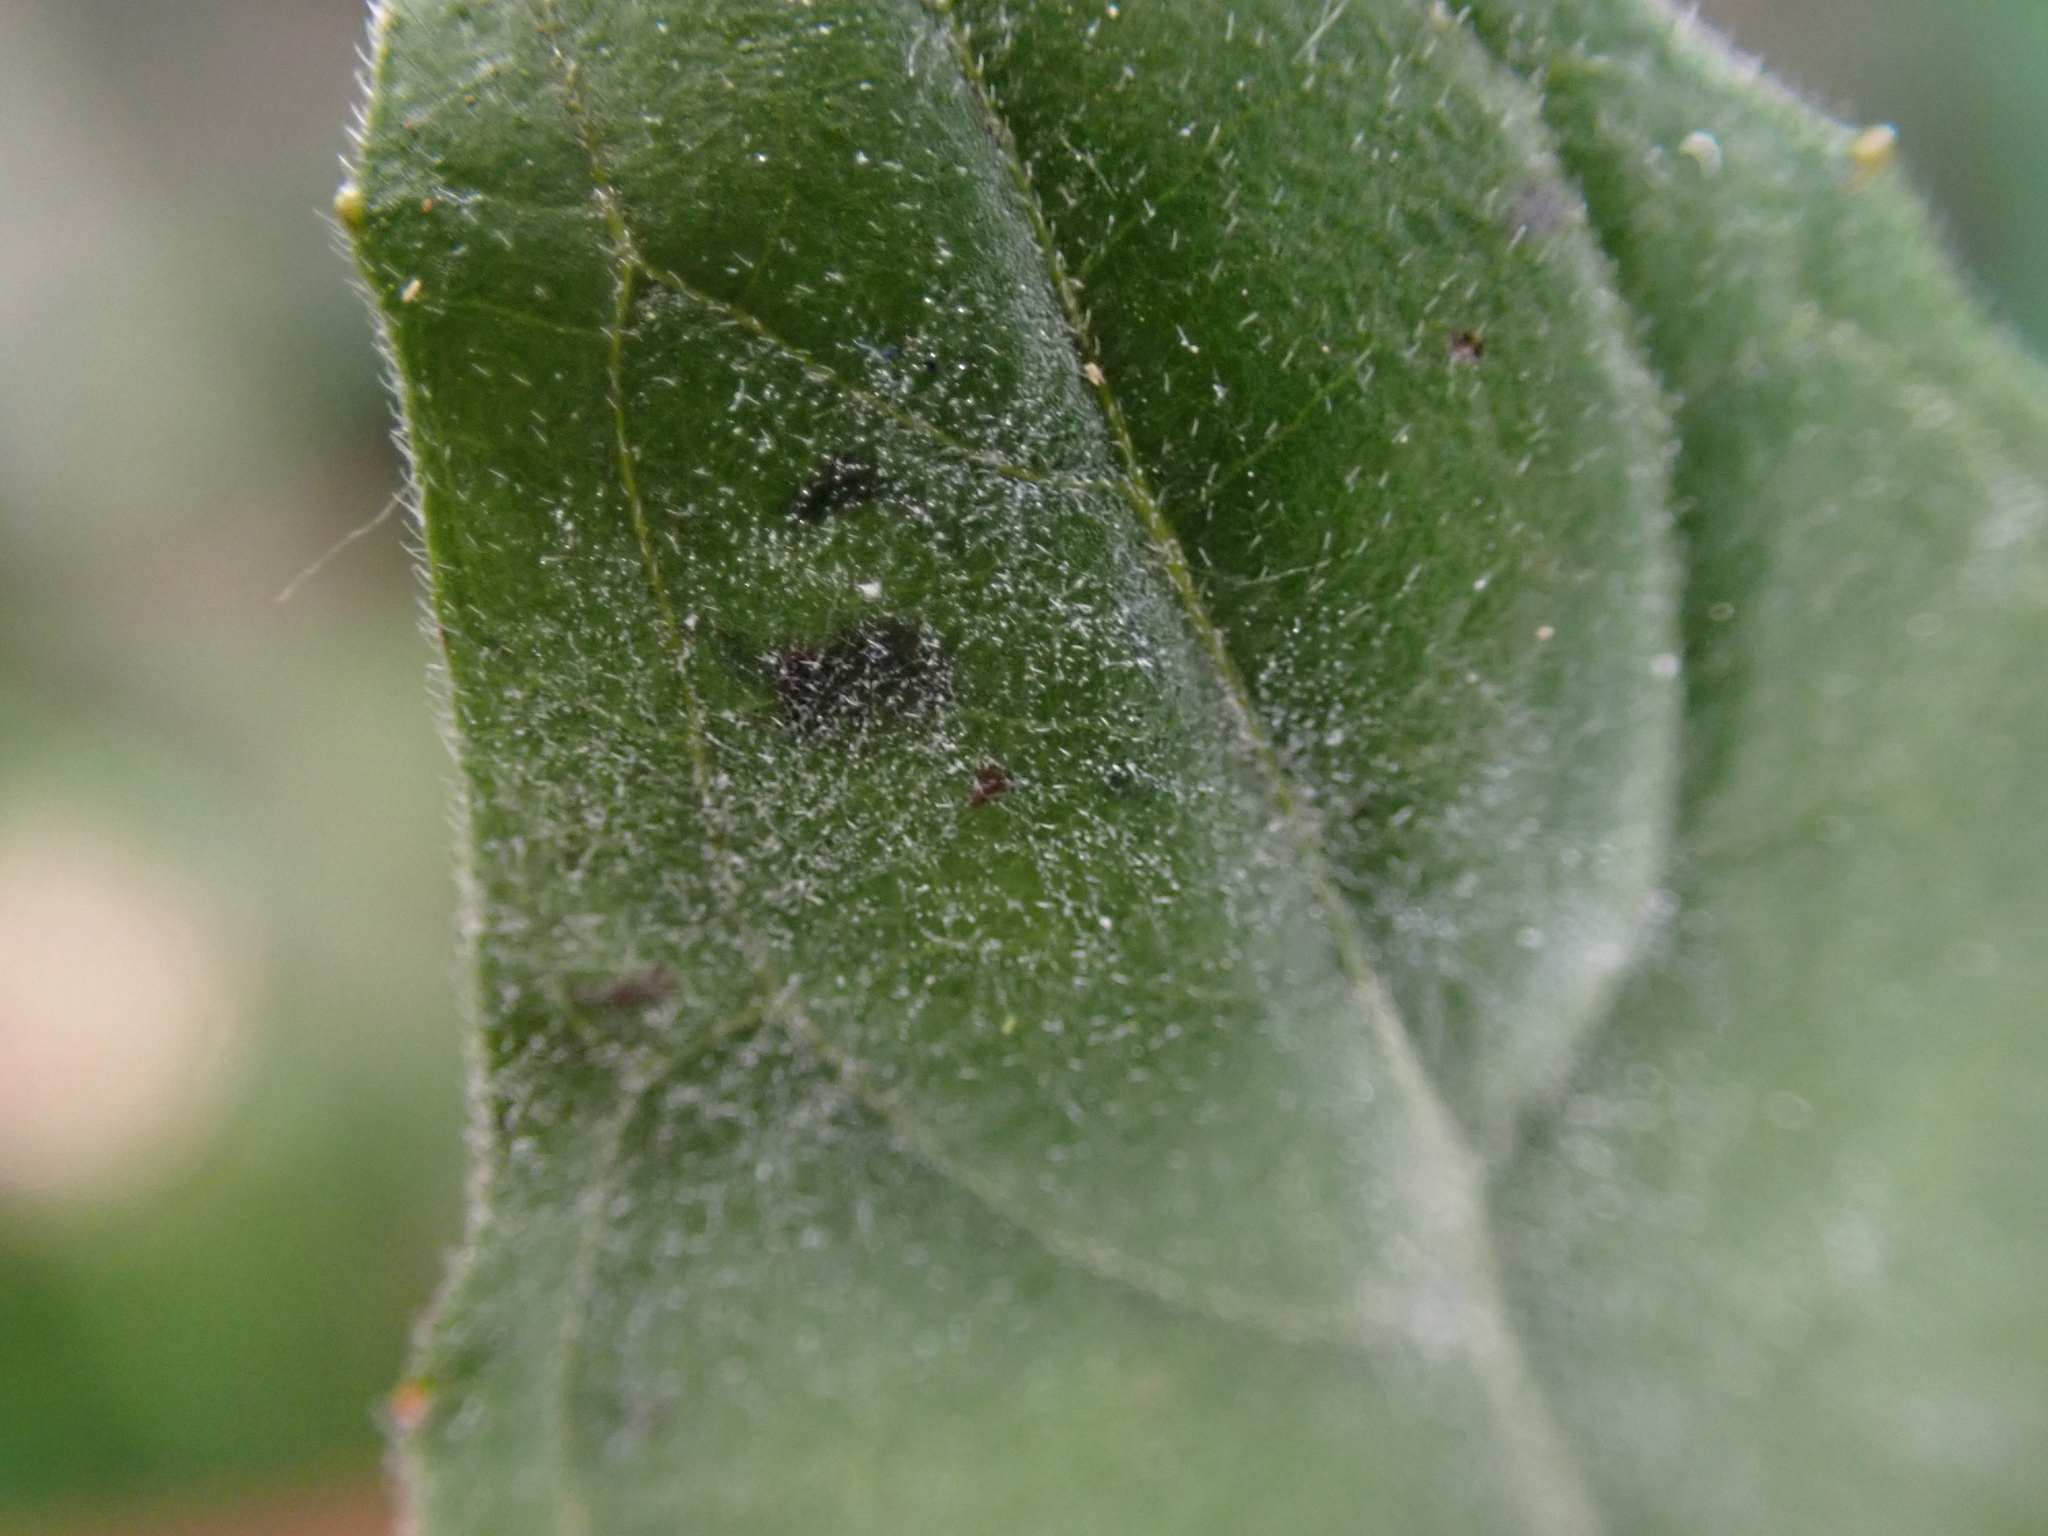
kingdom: Fungi
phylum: Ascomycota
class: Leotiomycetes
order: Helotiales
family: Erysiphaceae
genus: Erysiphe
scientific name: Erysiphe circaeae
